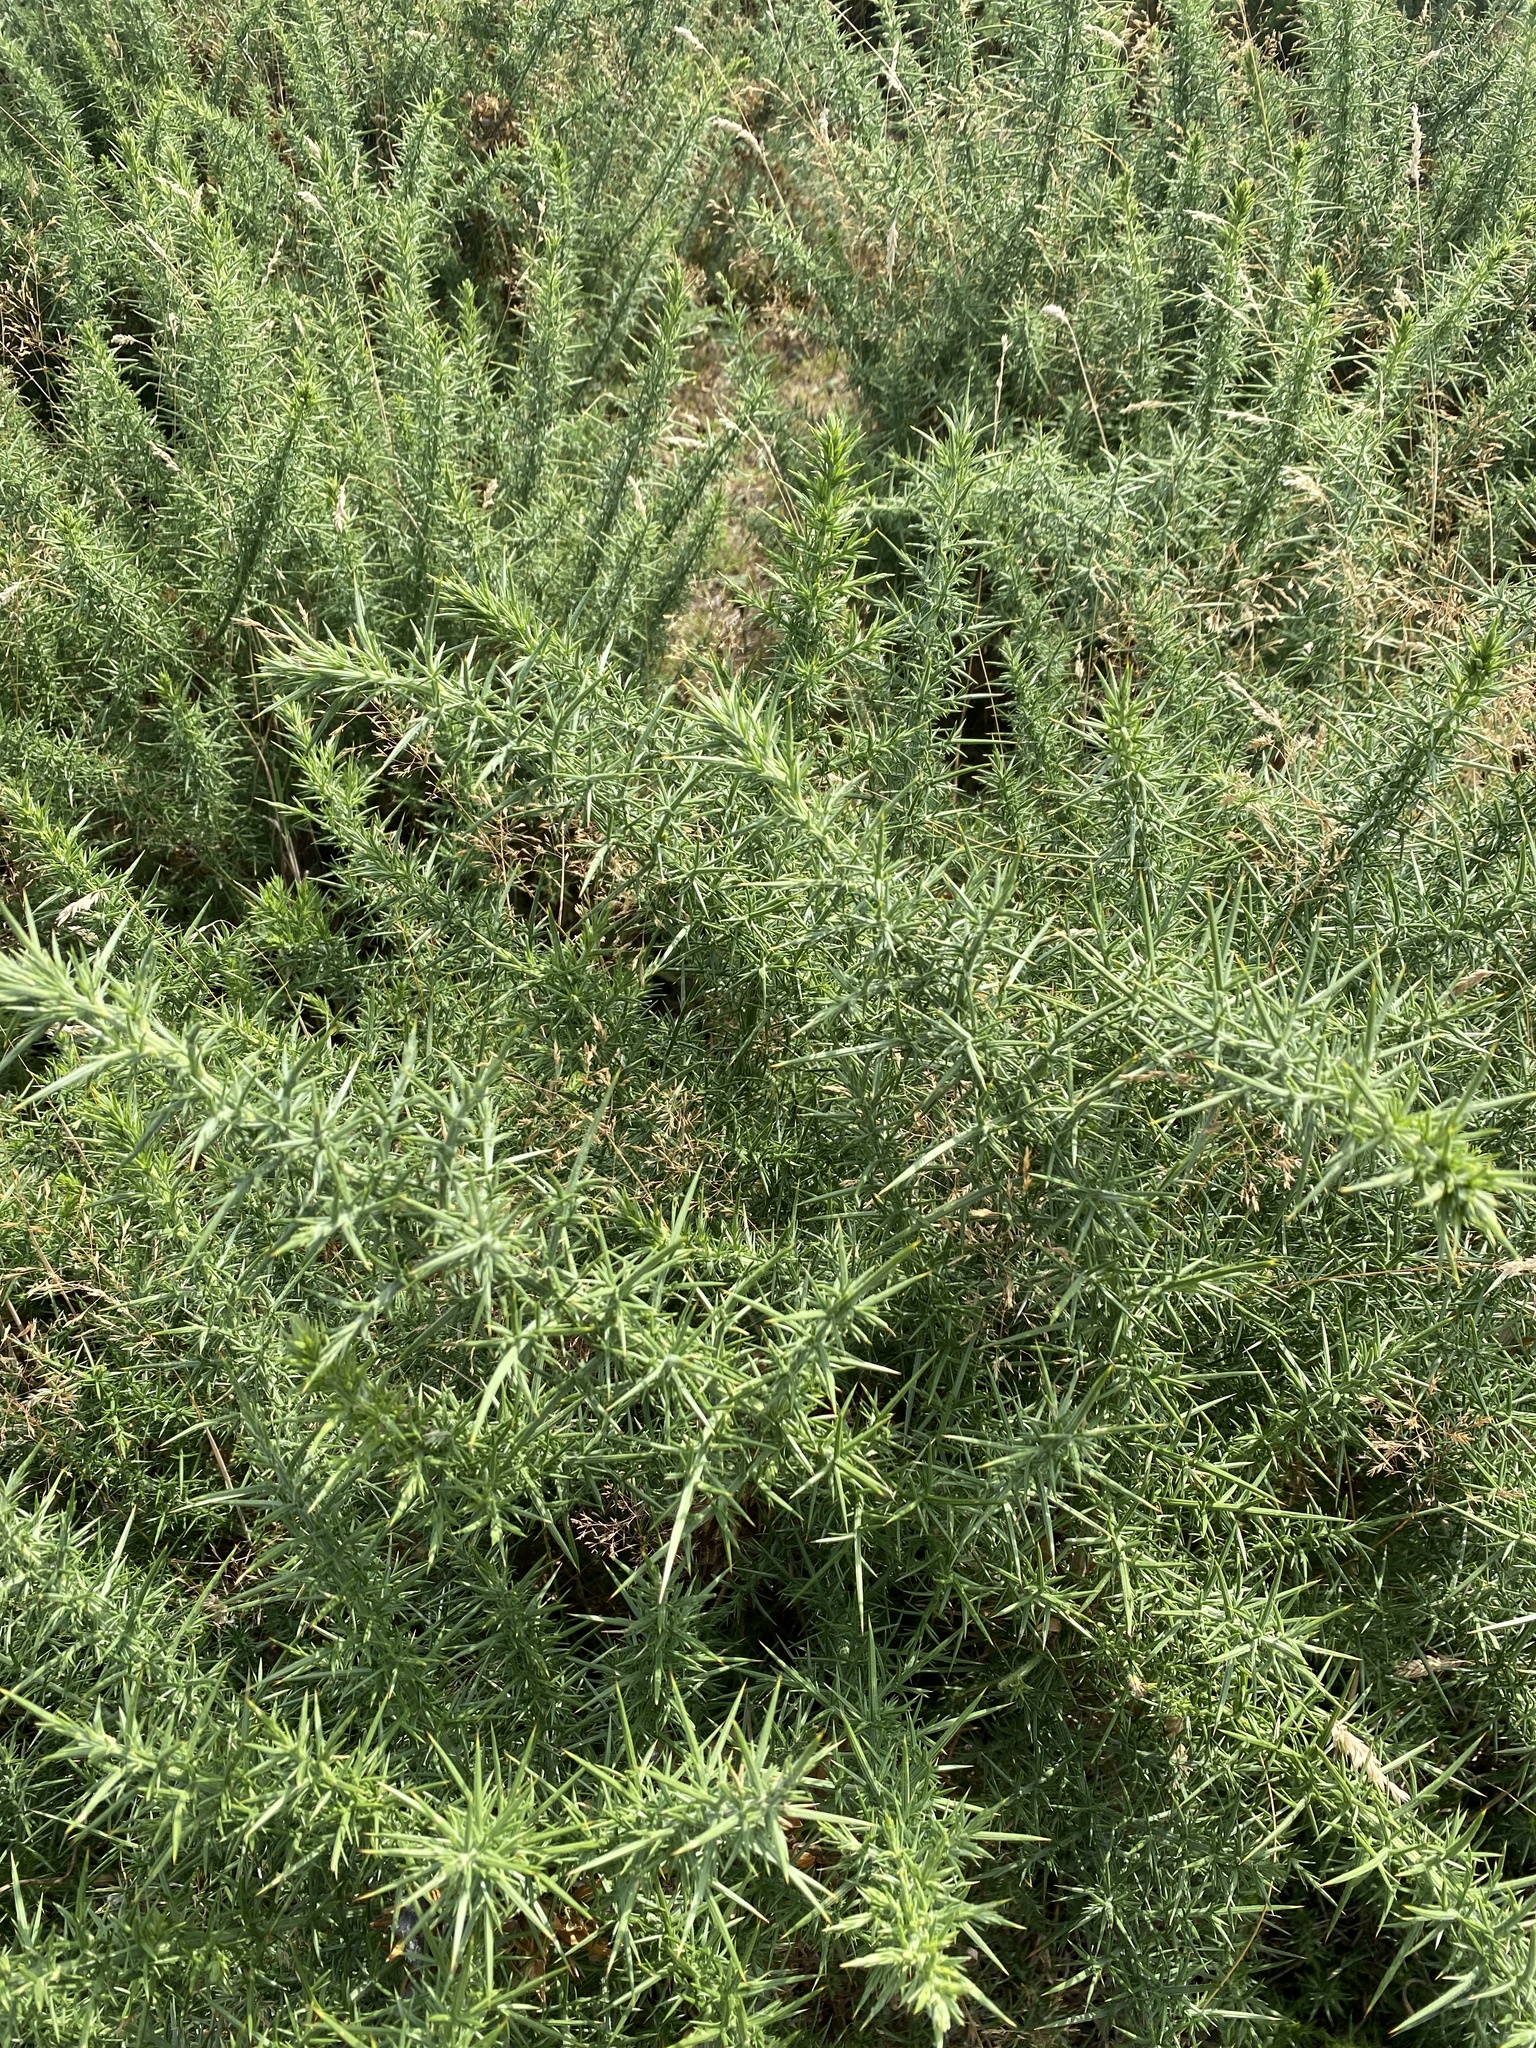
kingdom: Plantae
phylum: Tracheophyta
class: Magnoliopsida
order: Fabales
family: Fabaceae
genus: Ulex
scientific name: Ulex europaeus
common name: Common gorse
